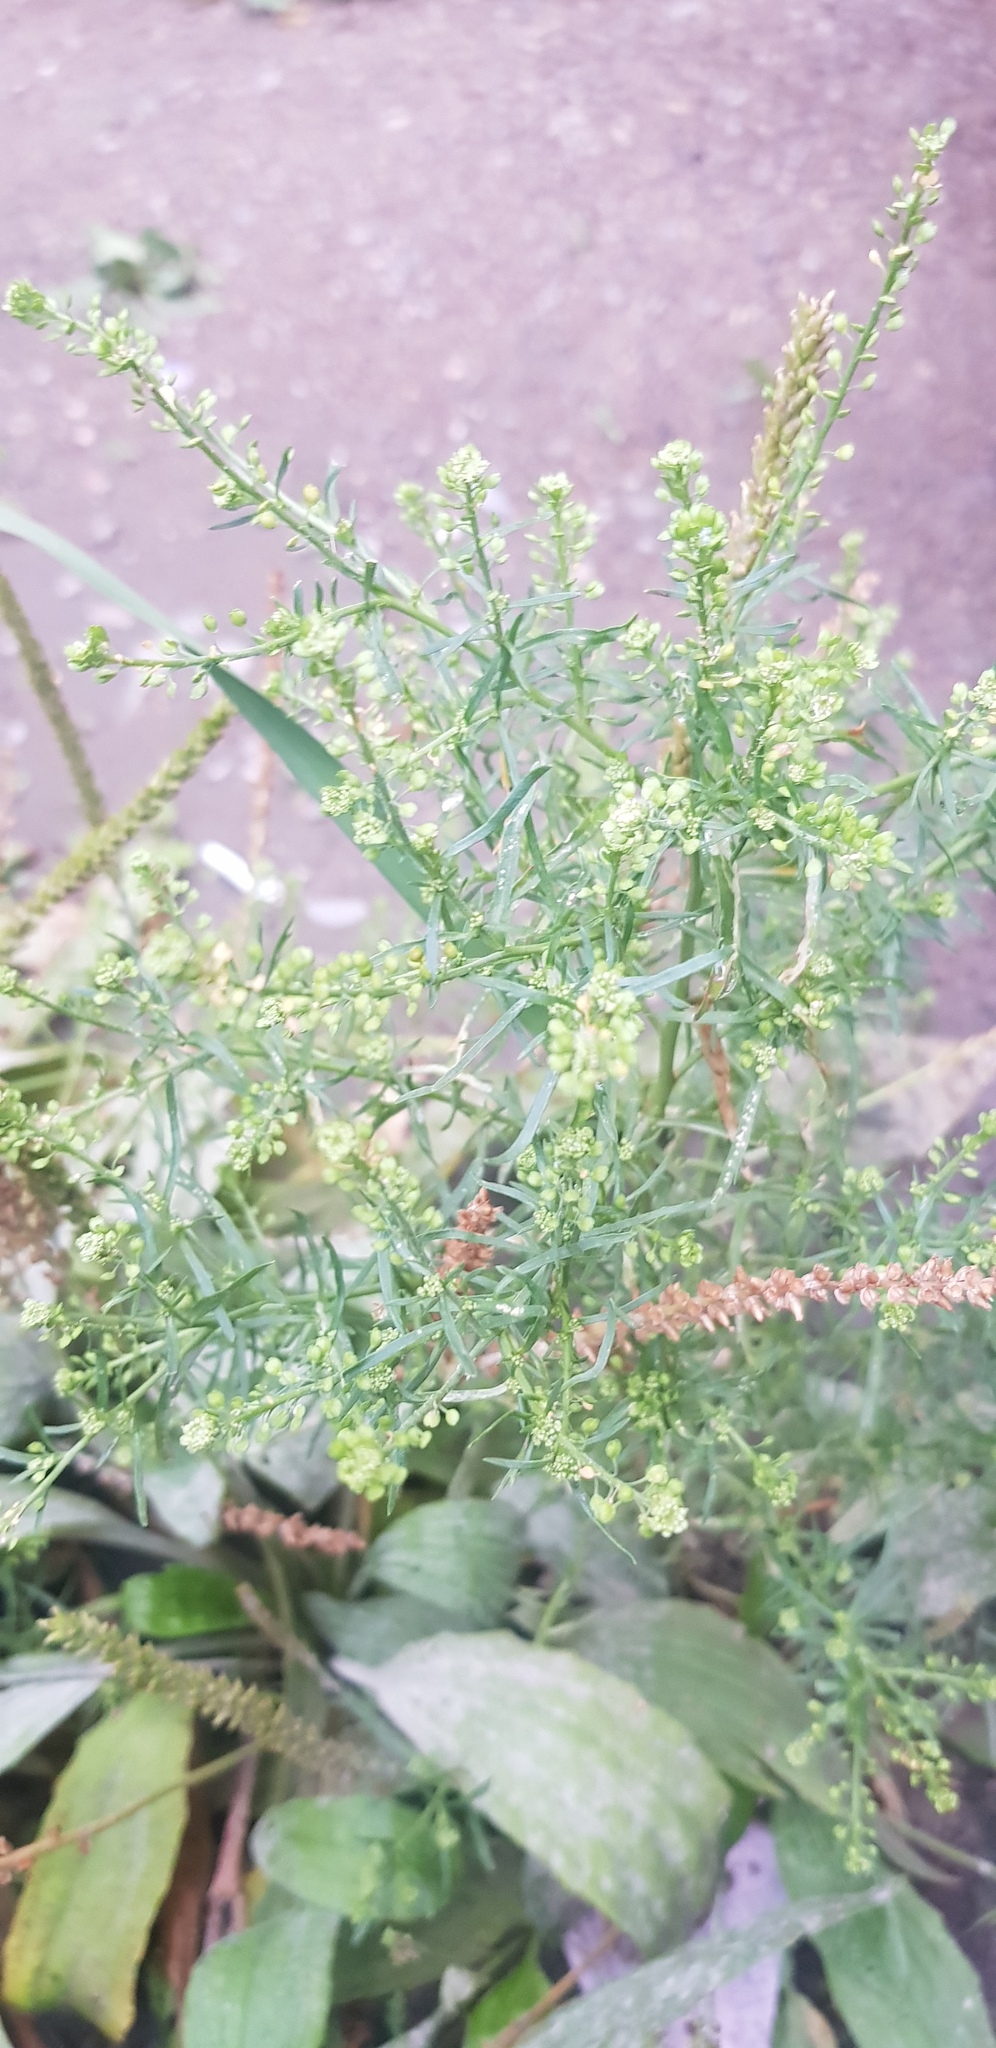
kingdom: Plantae
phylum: Tracheophyta
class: Magnoliopsida
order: Brassicales
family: Brassicaceae
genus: Lepidium
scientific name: Lepidium ruderale
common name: Narrow-leaved pepperwort
